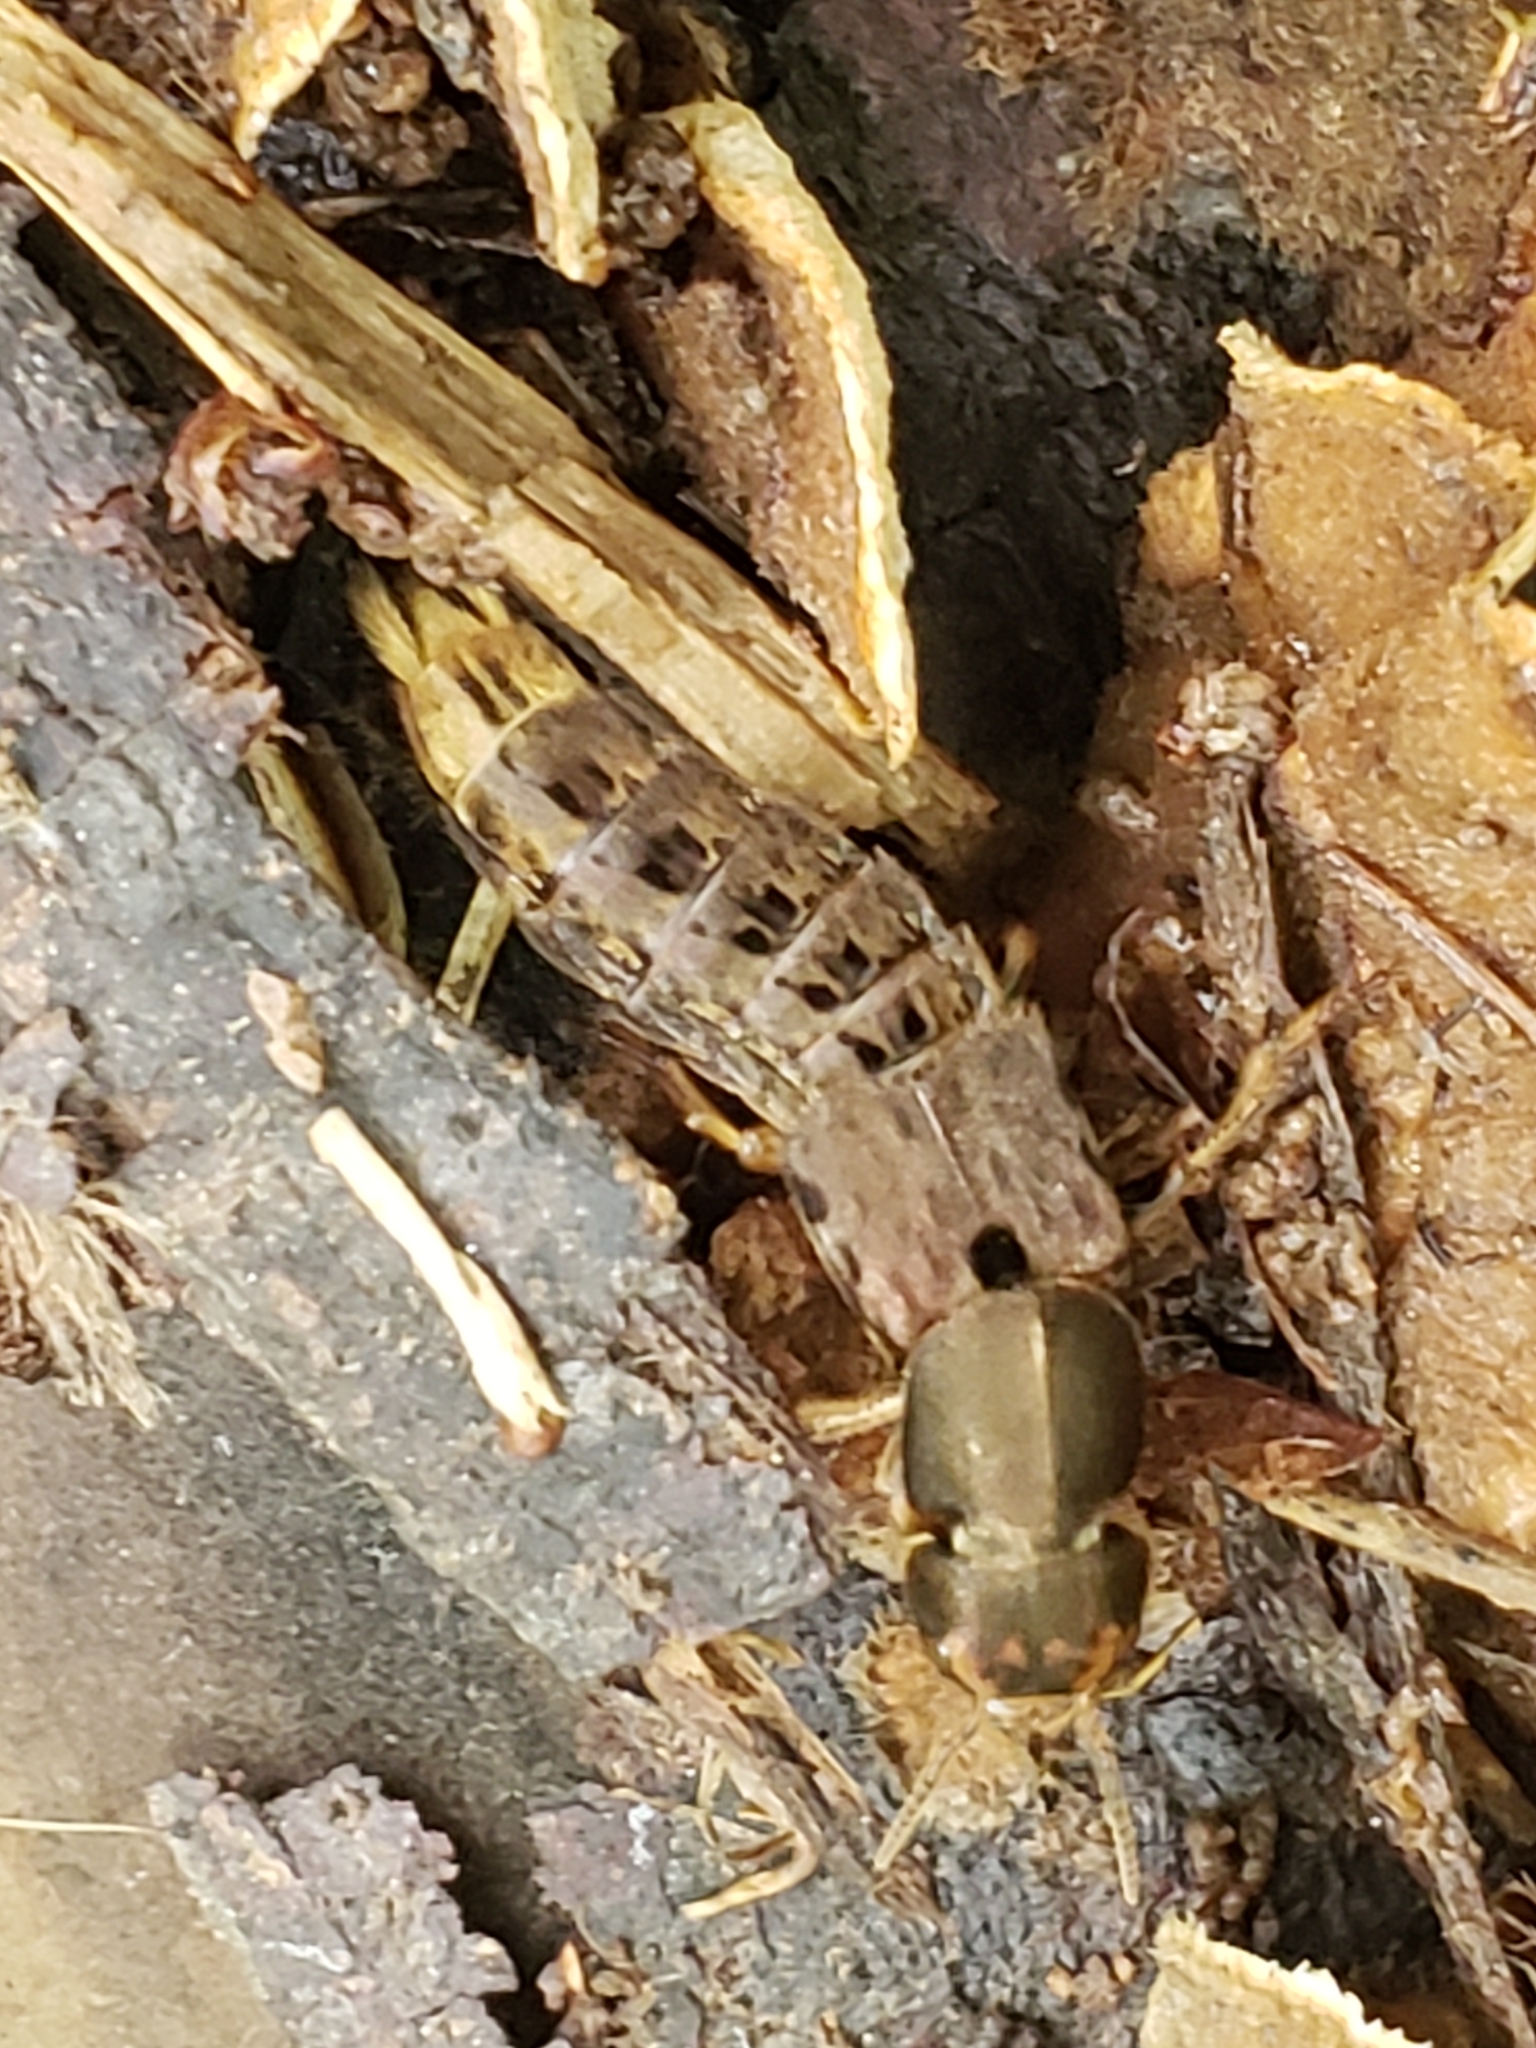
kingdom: Animalia
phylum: Arthropoda
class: Insecta
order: Coleoptera
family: Staphylinidae
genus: Platydracus
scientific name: Platydracus maculosus
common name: Brown rove beetle
